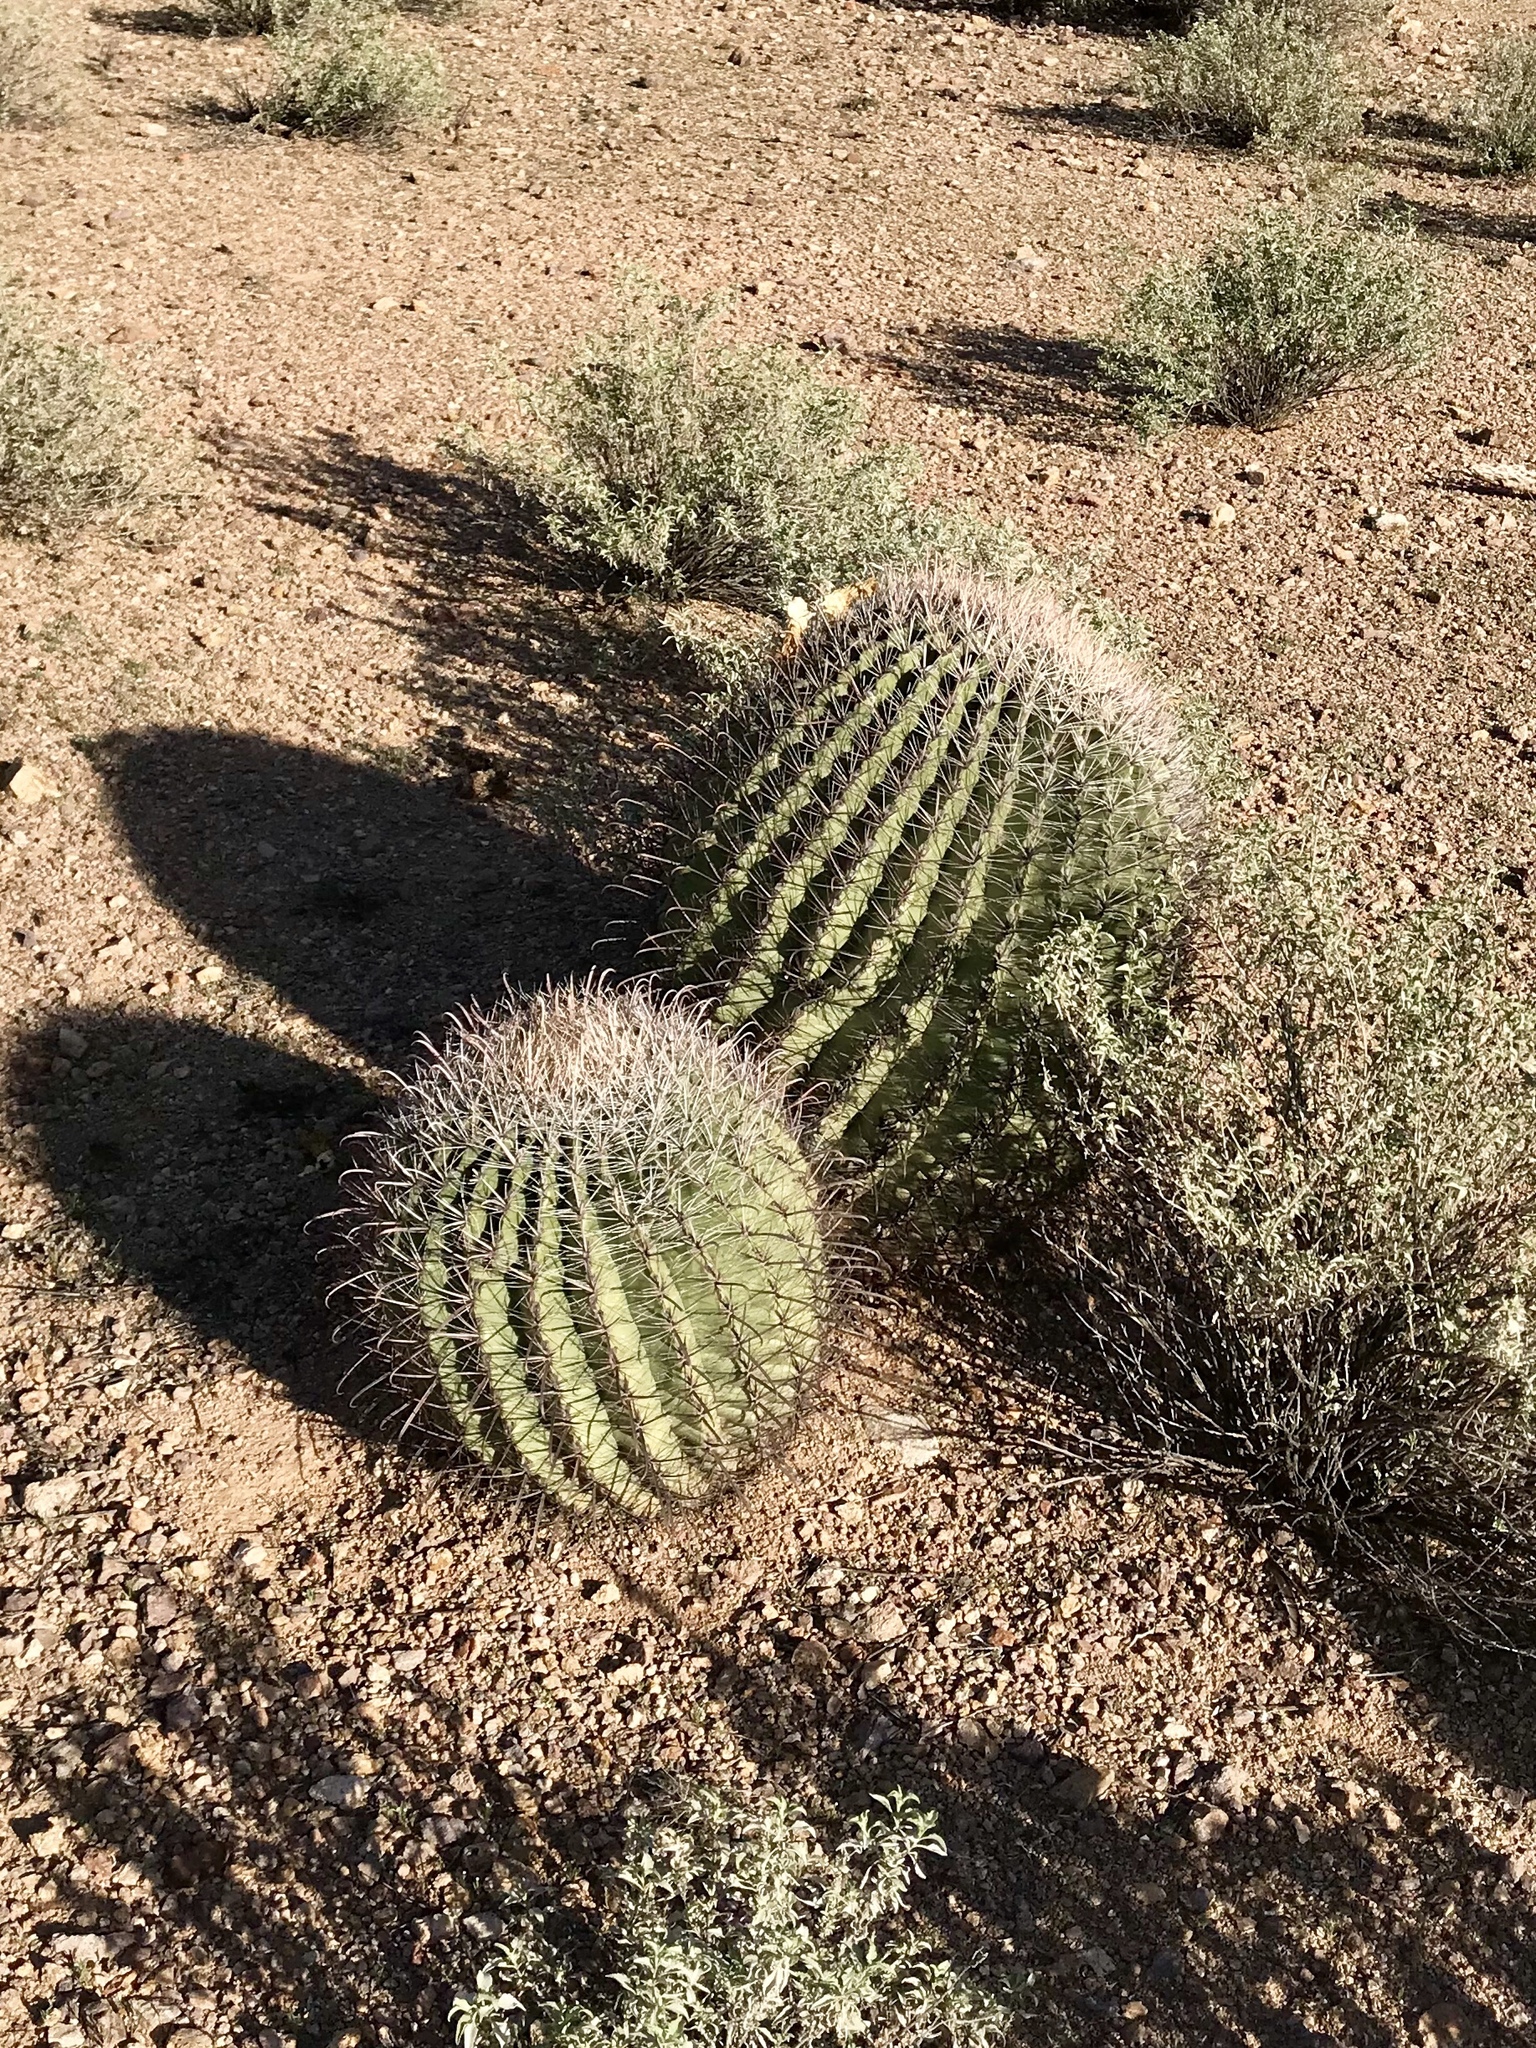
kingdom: Plantae
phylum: Tracheophyta
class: Magnoliopsida
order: Caryophyllales
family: Cactaceae
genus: Ferocactus
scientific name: Ferocactus wislizeni
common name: Candy barrel cactus
